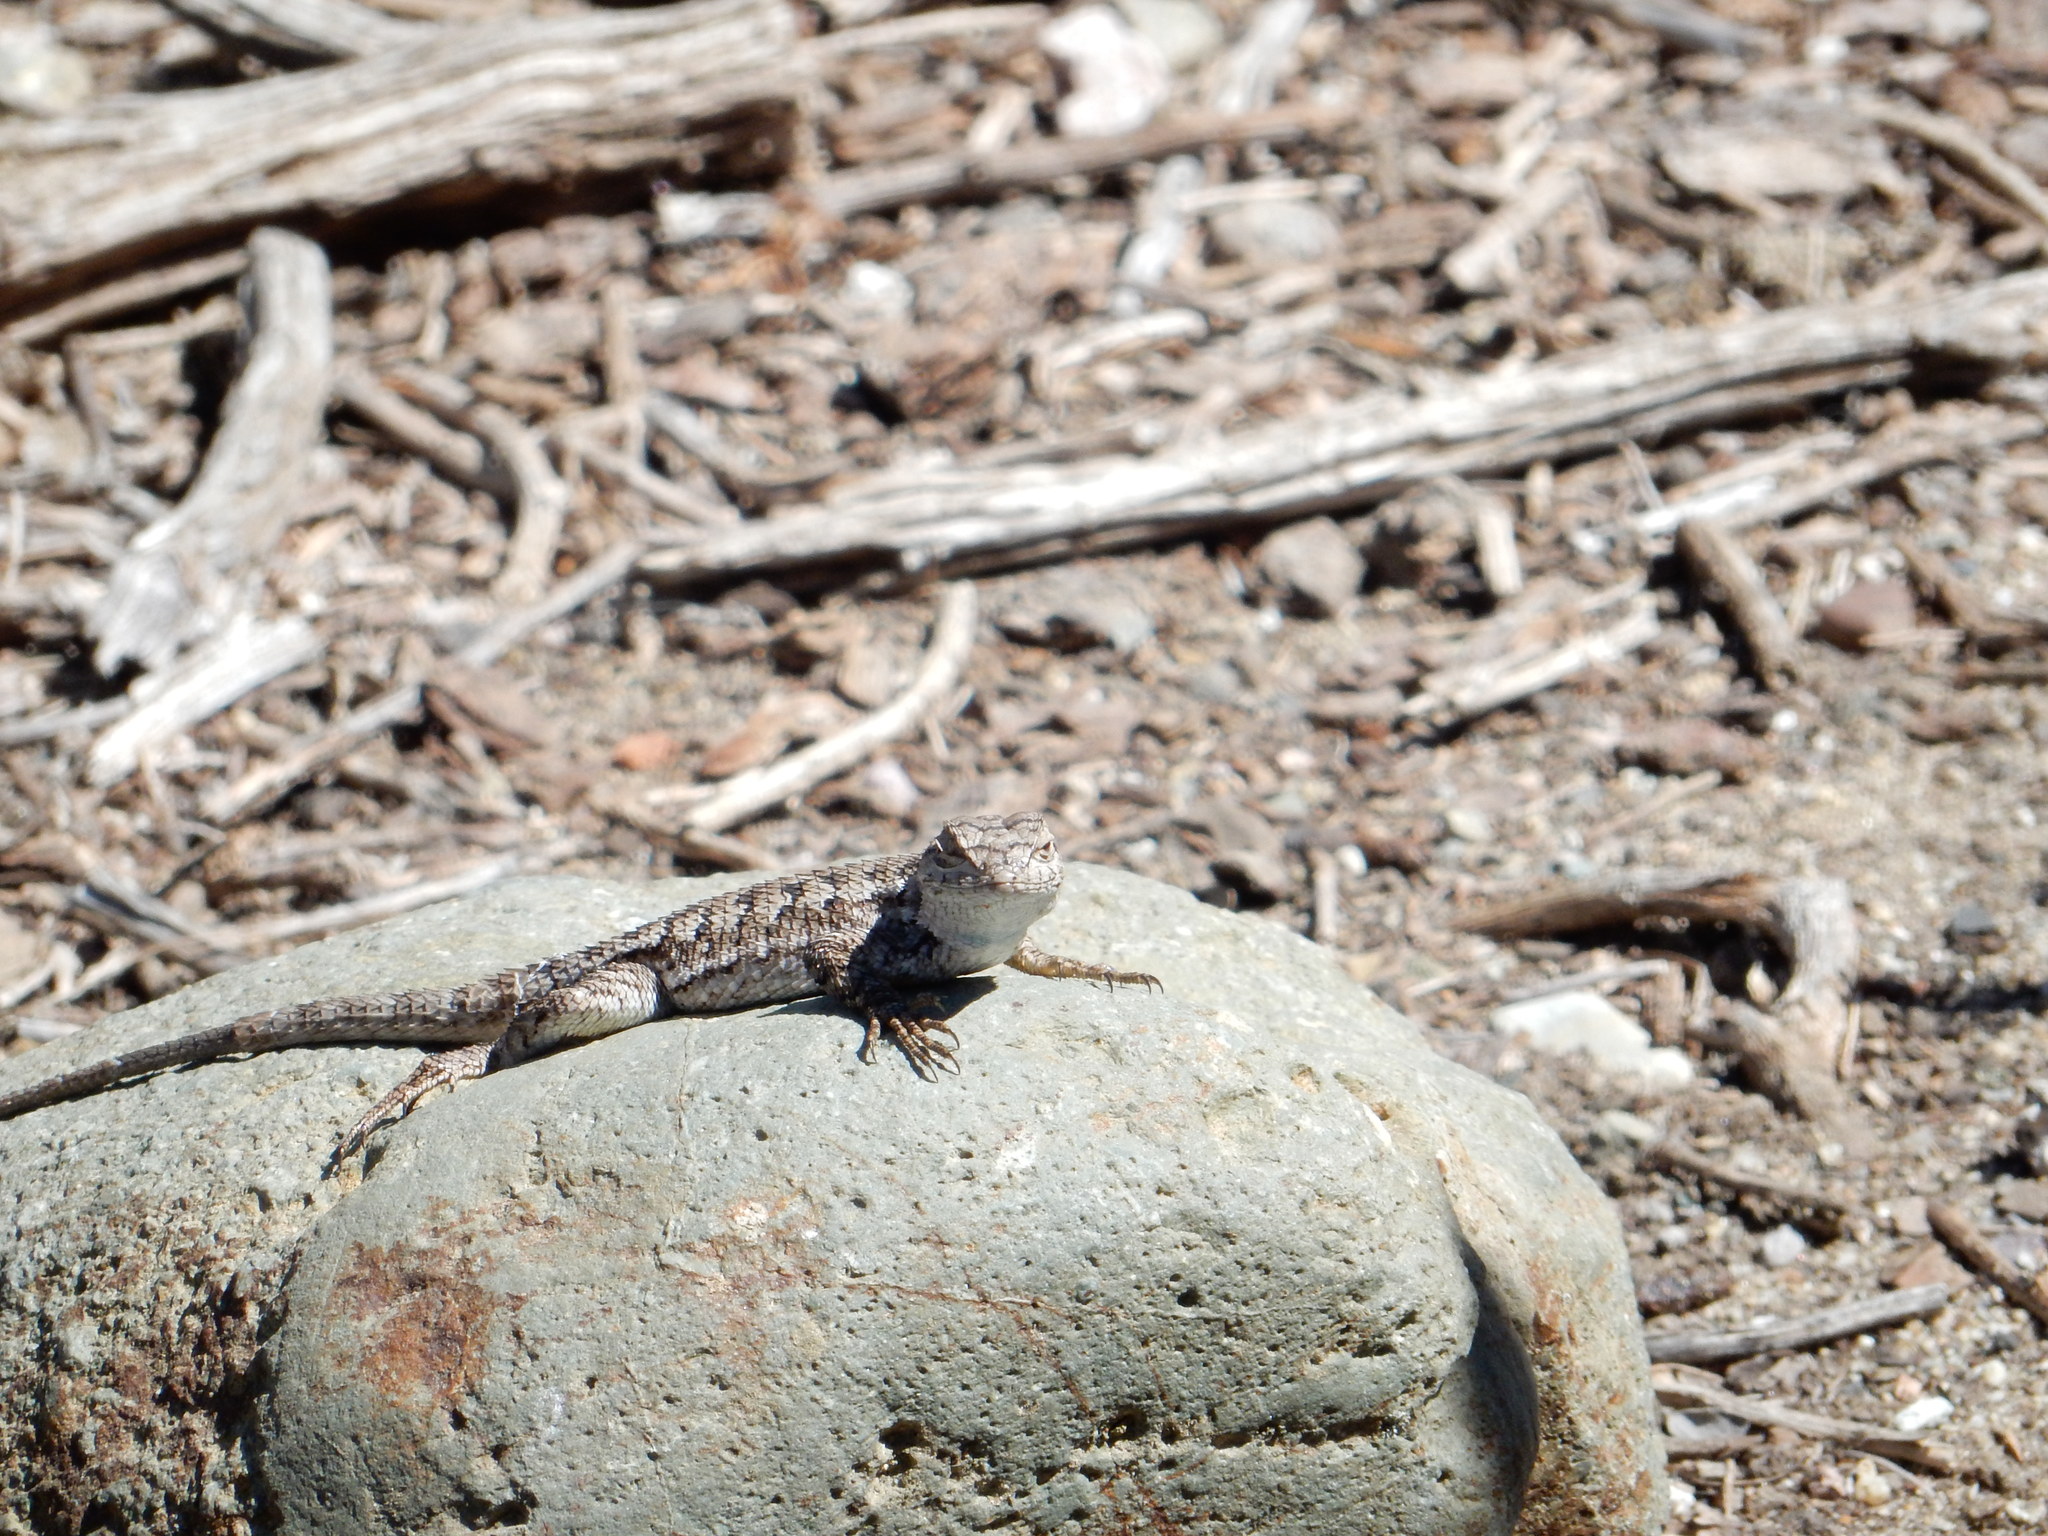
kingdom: Animalia
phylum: Chordata
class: Squamata
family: Phrynosomatidae
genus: Sceloporus
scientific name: Sceloporus occidentalis
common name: Western fence lizard
